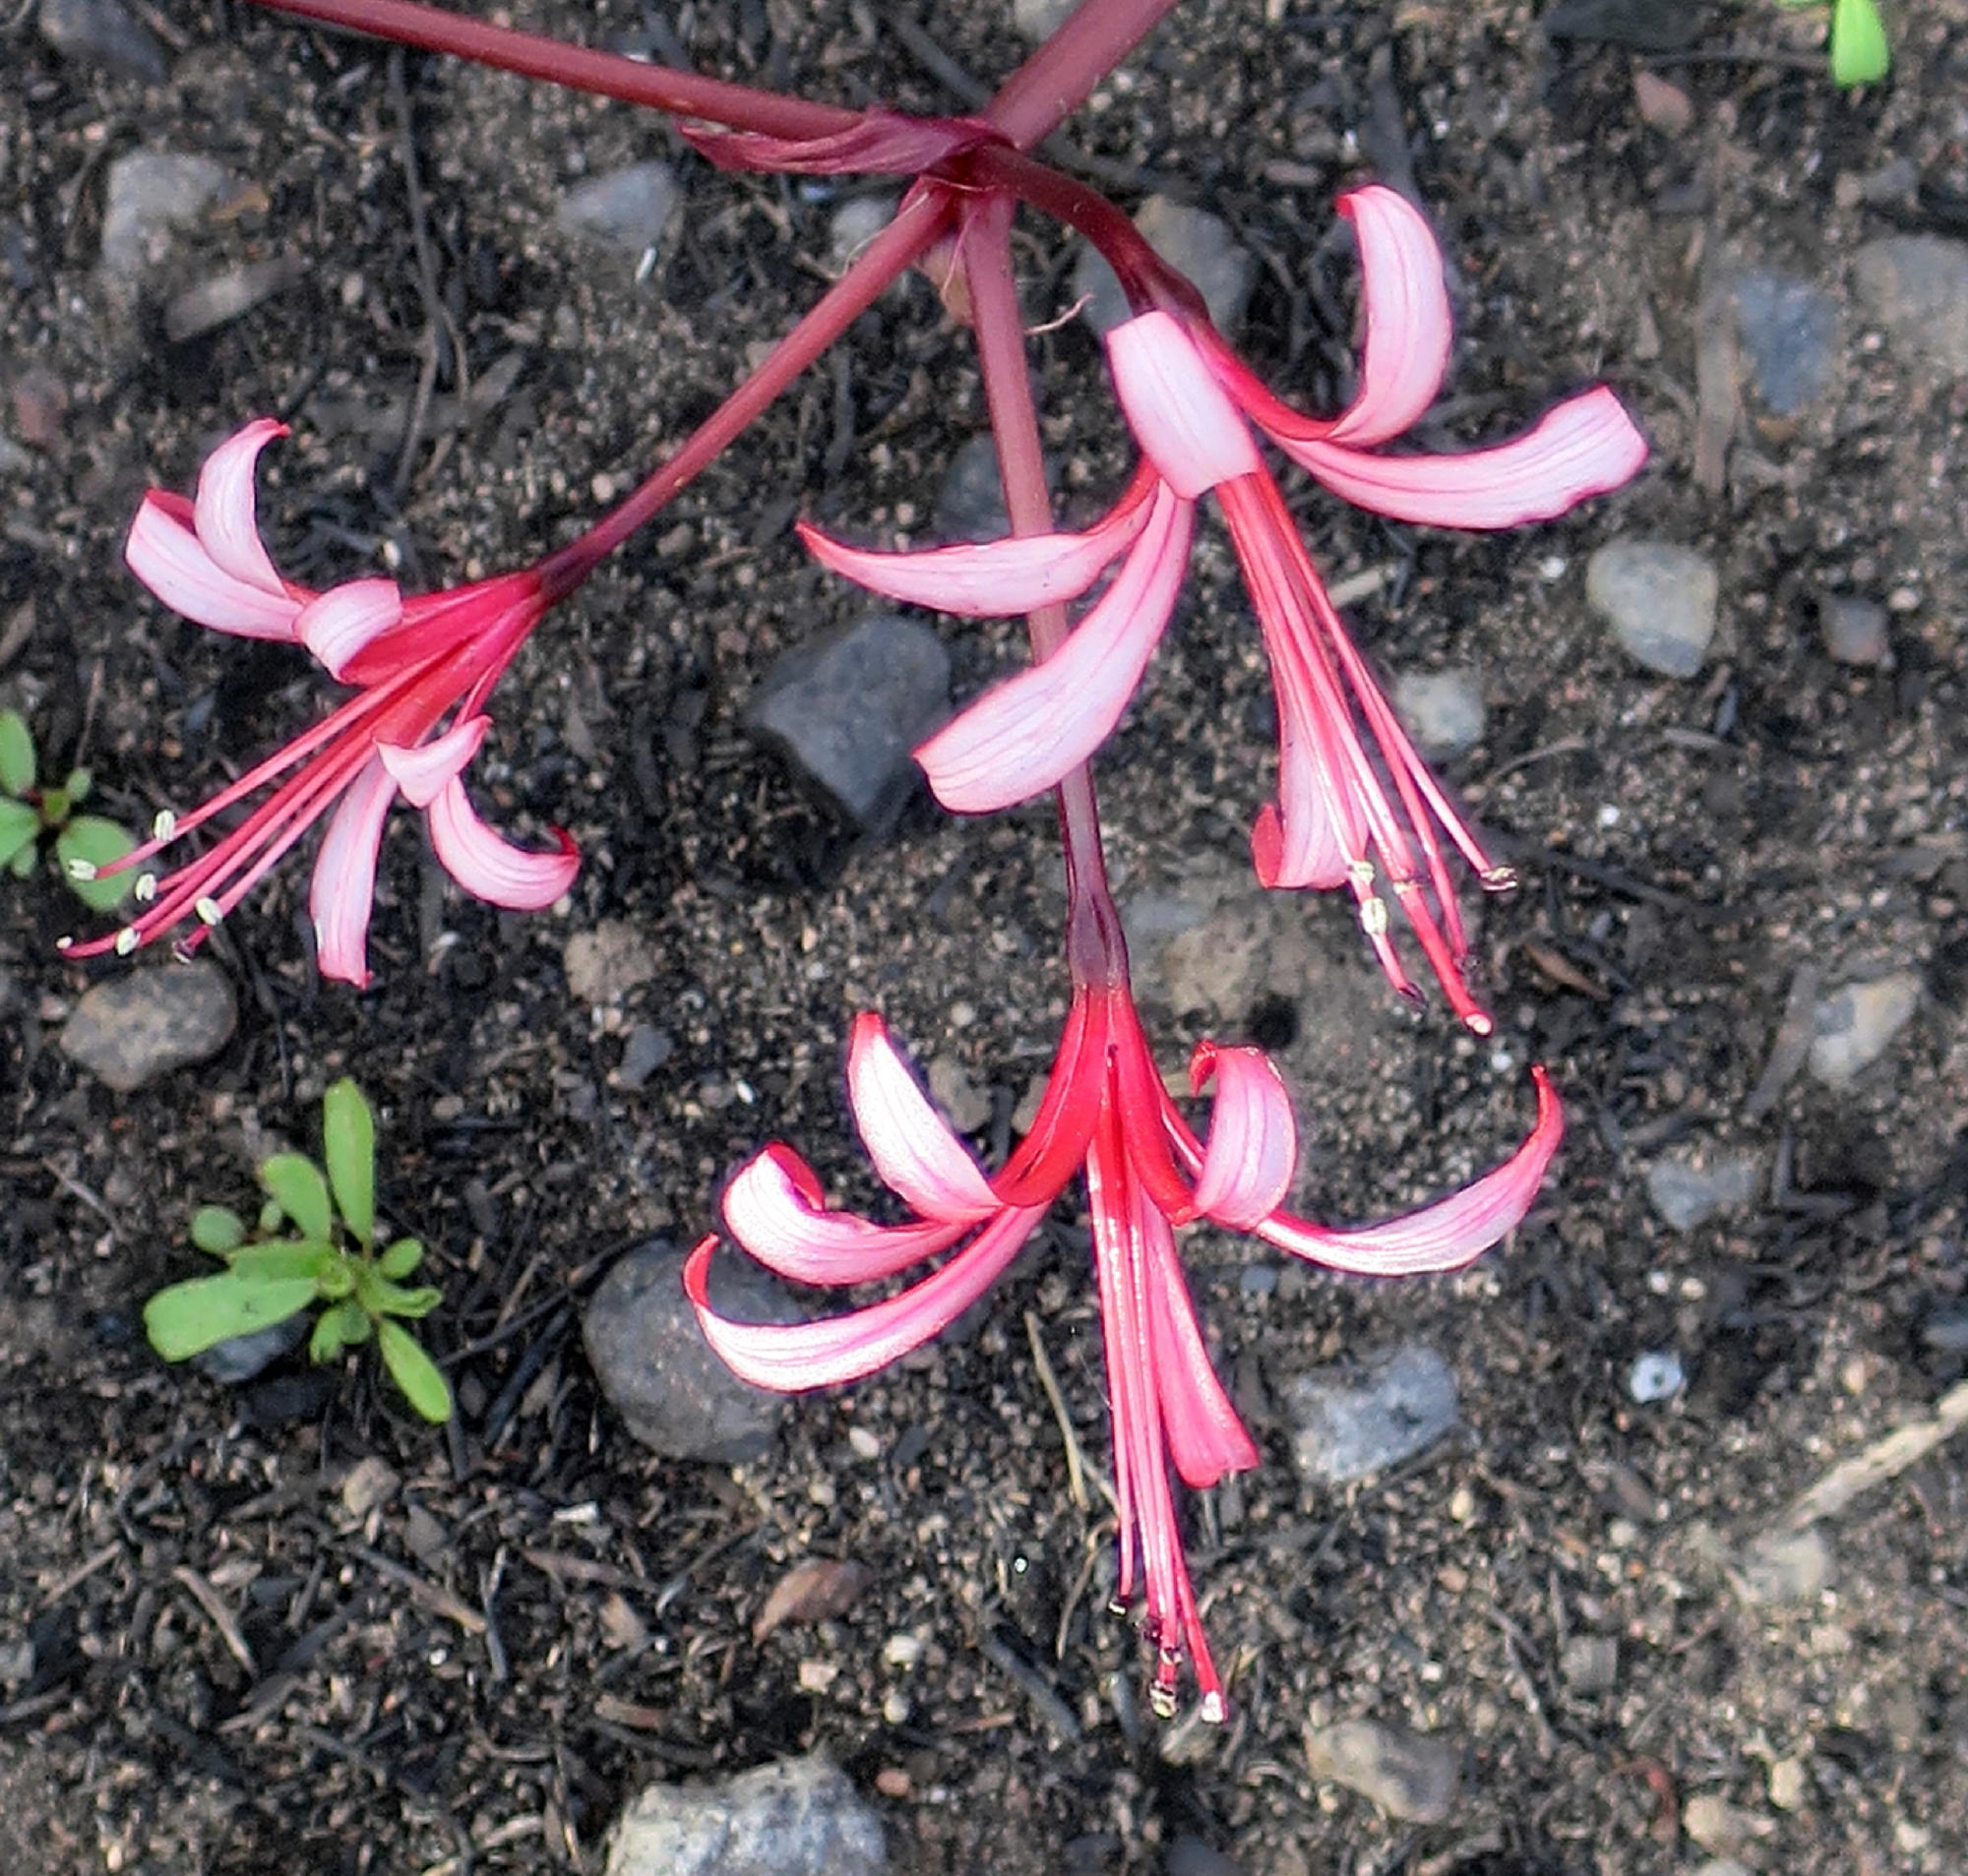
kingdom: Plantae
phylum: Tracheophyta
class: Liliopsida
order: Asparagales
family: Amaryllidaceae
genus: Brunsvigia
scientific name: Brunsvigia nervosa
